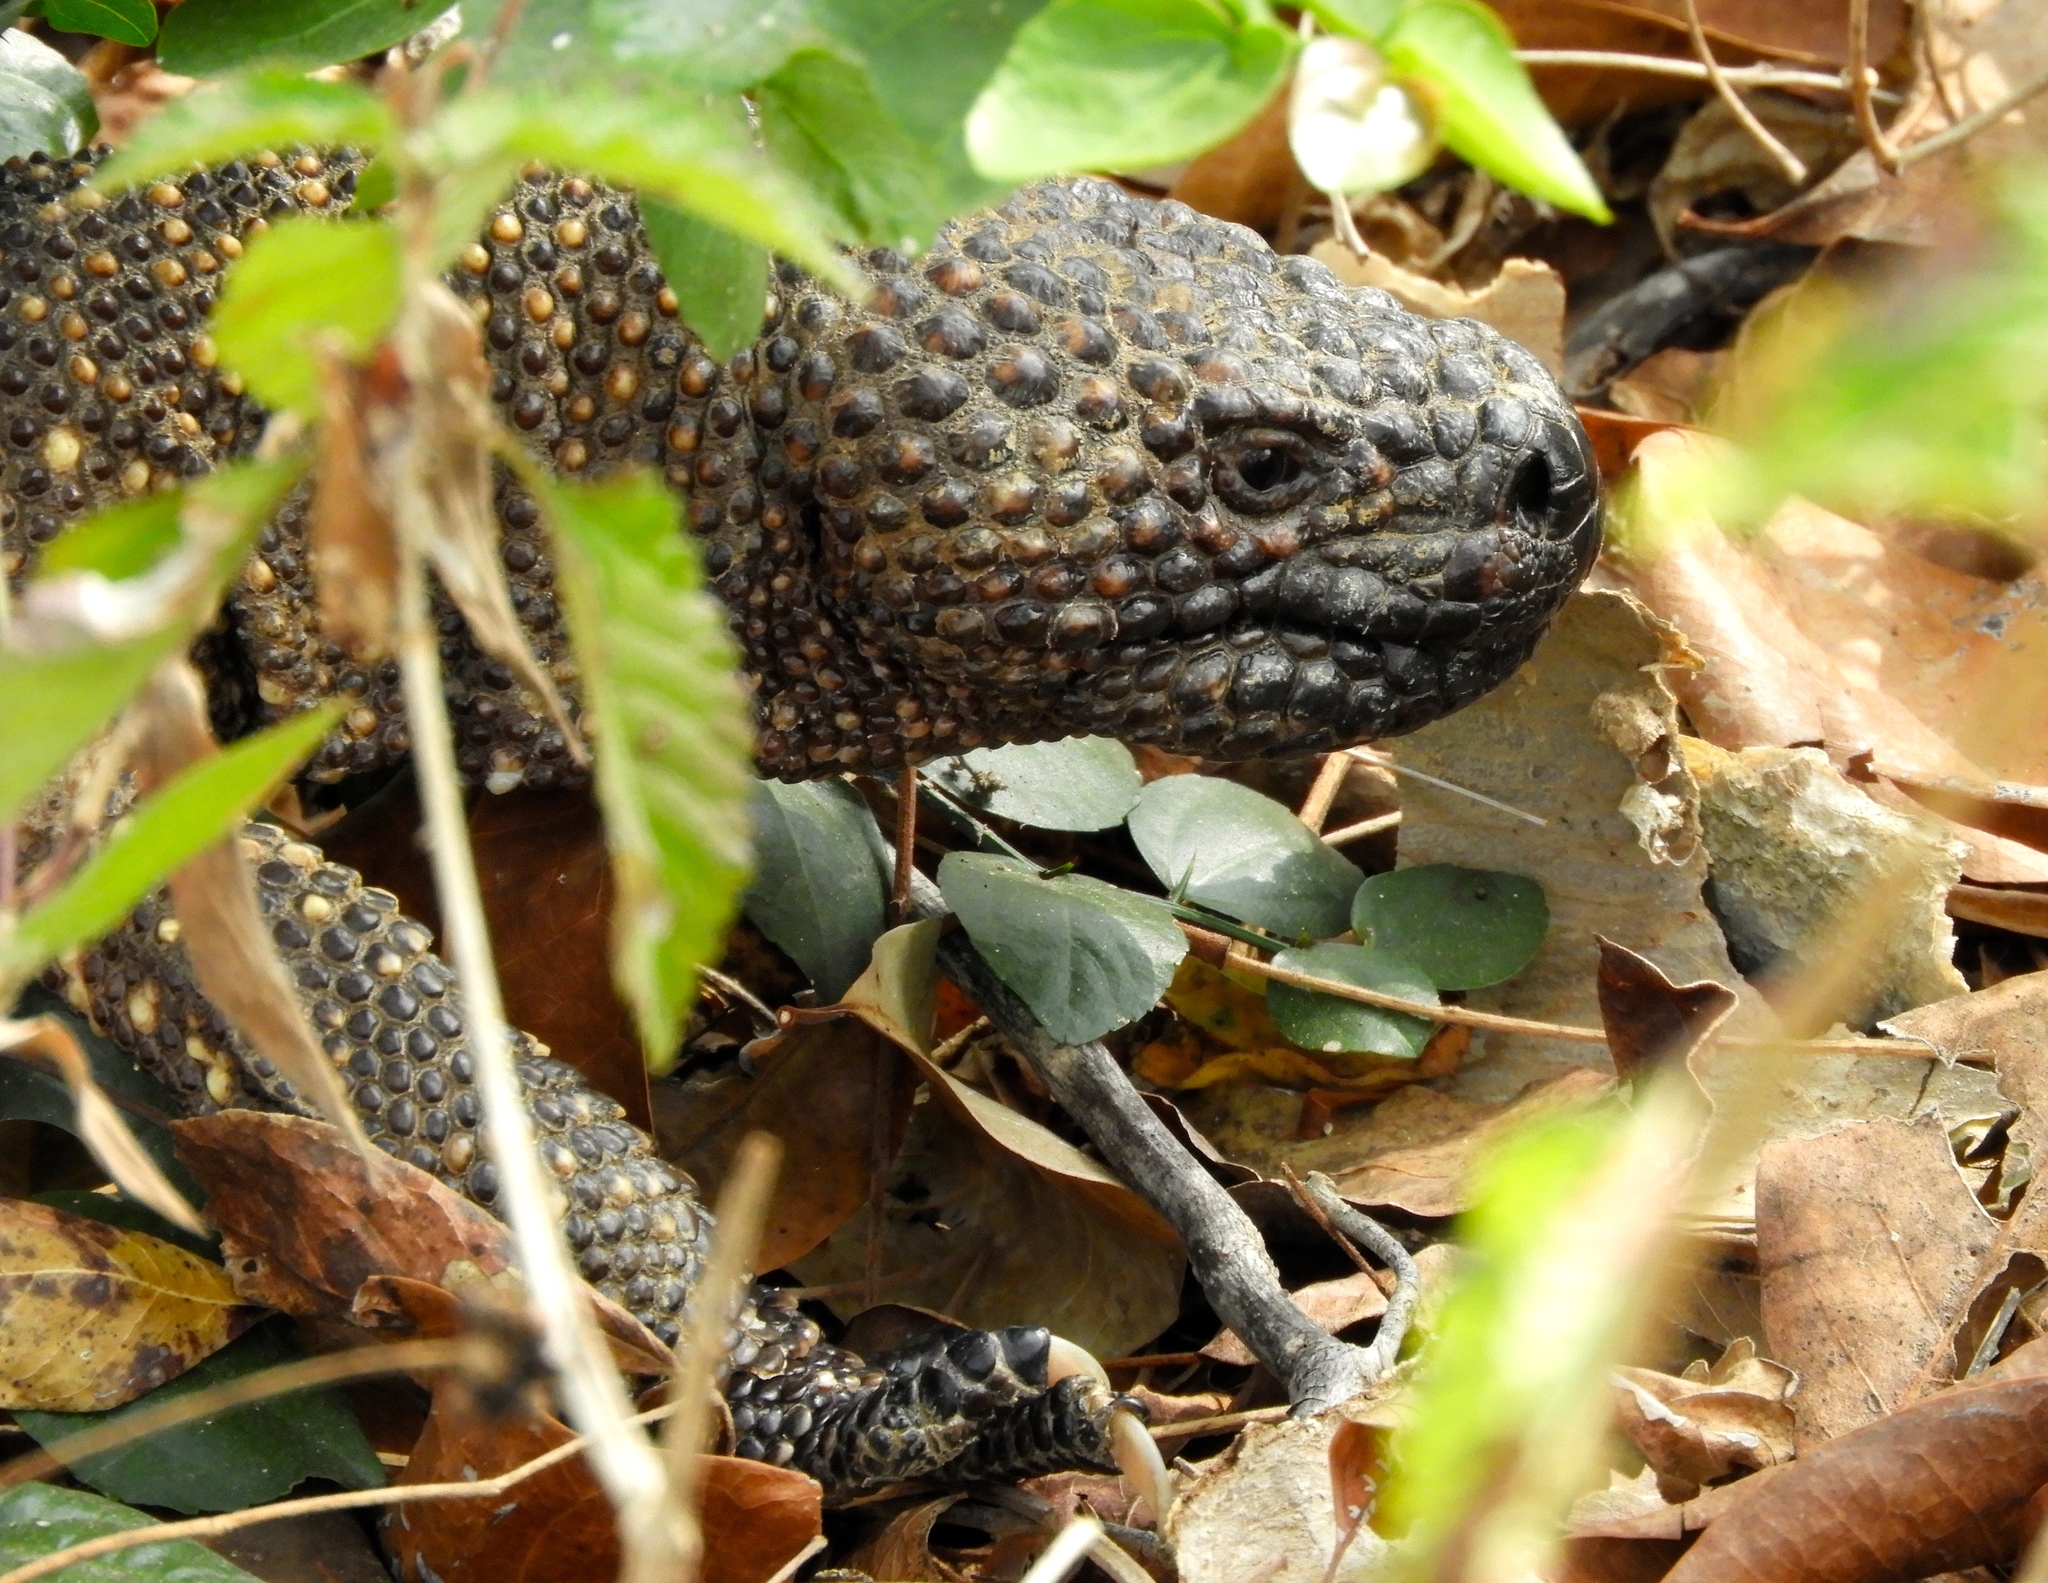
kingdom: Animalia
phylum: Chordata
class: Squamata
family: Helodermatidae
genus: Heloderma
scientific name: Heloderma horridum
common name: Mexican beaded lizard
